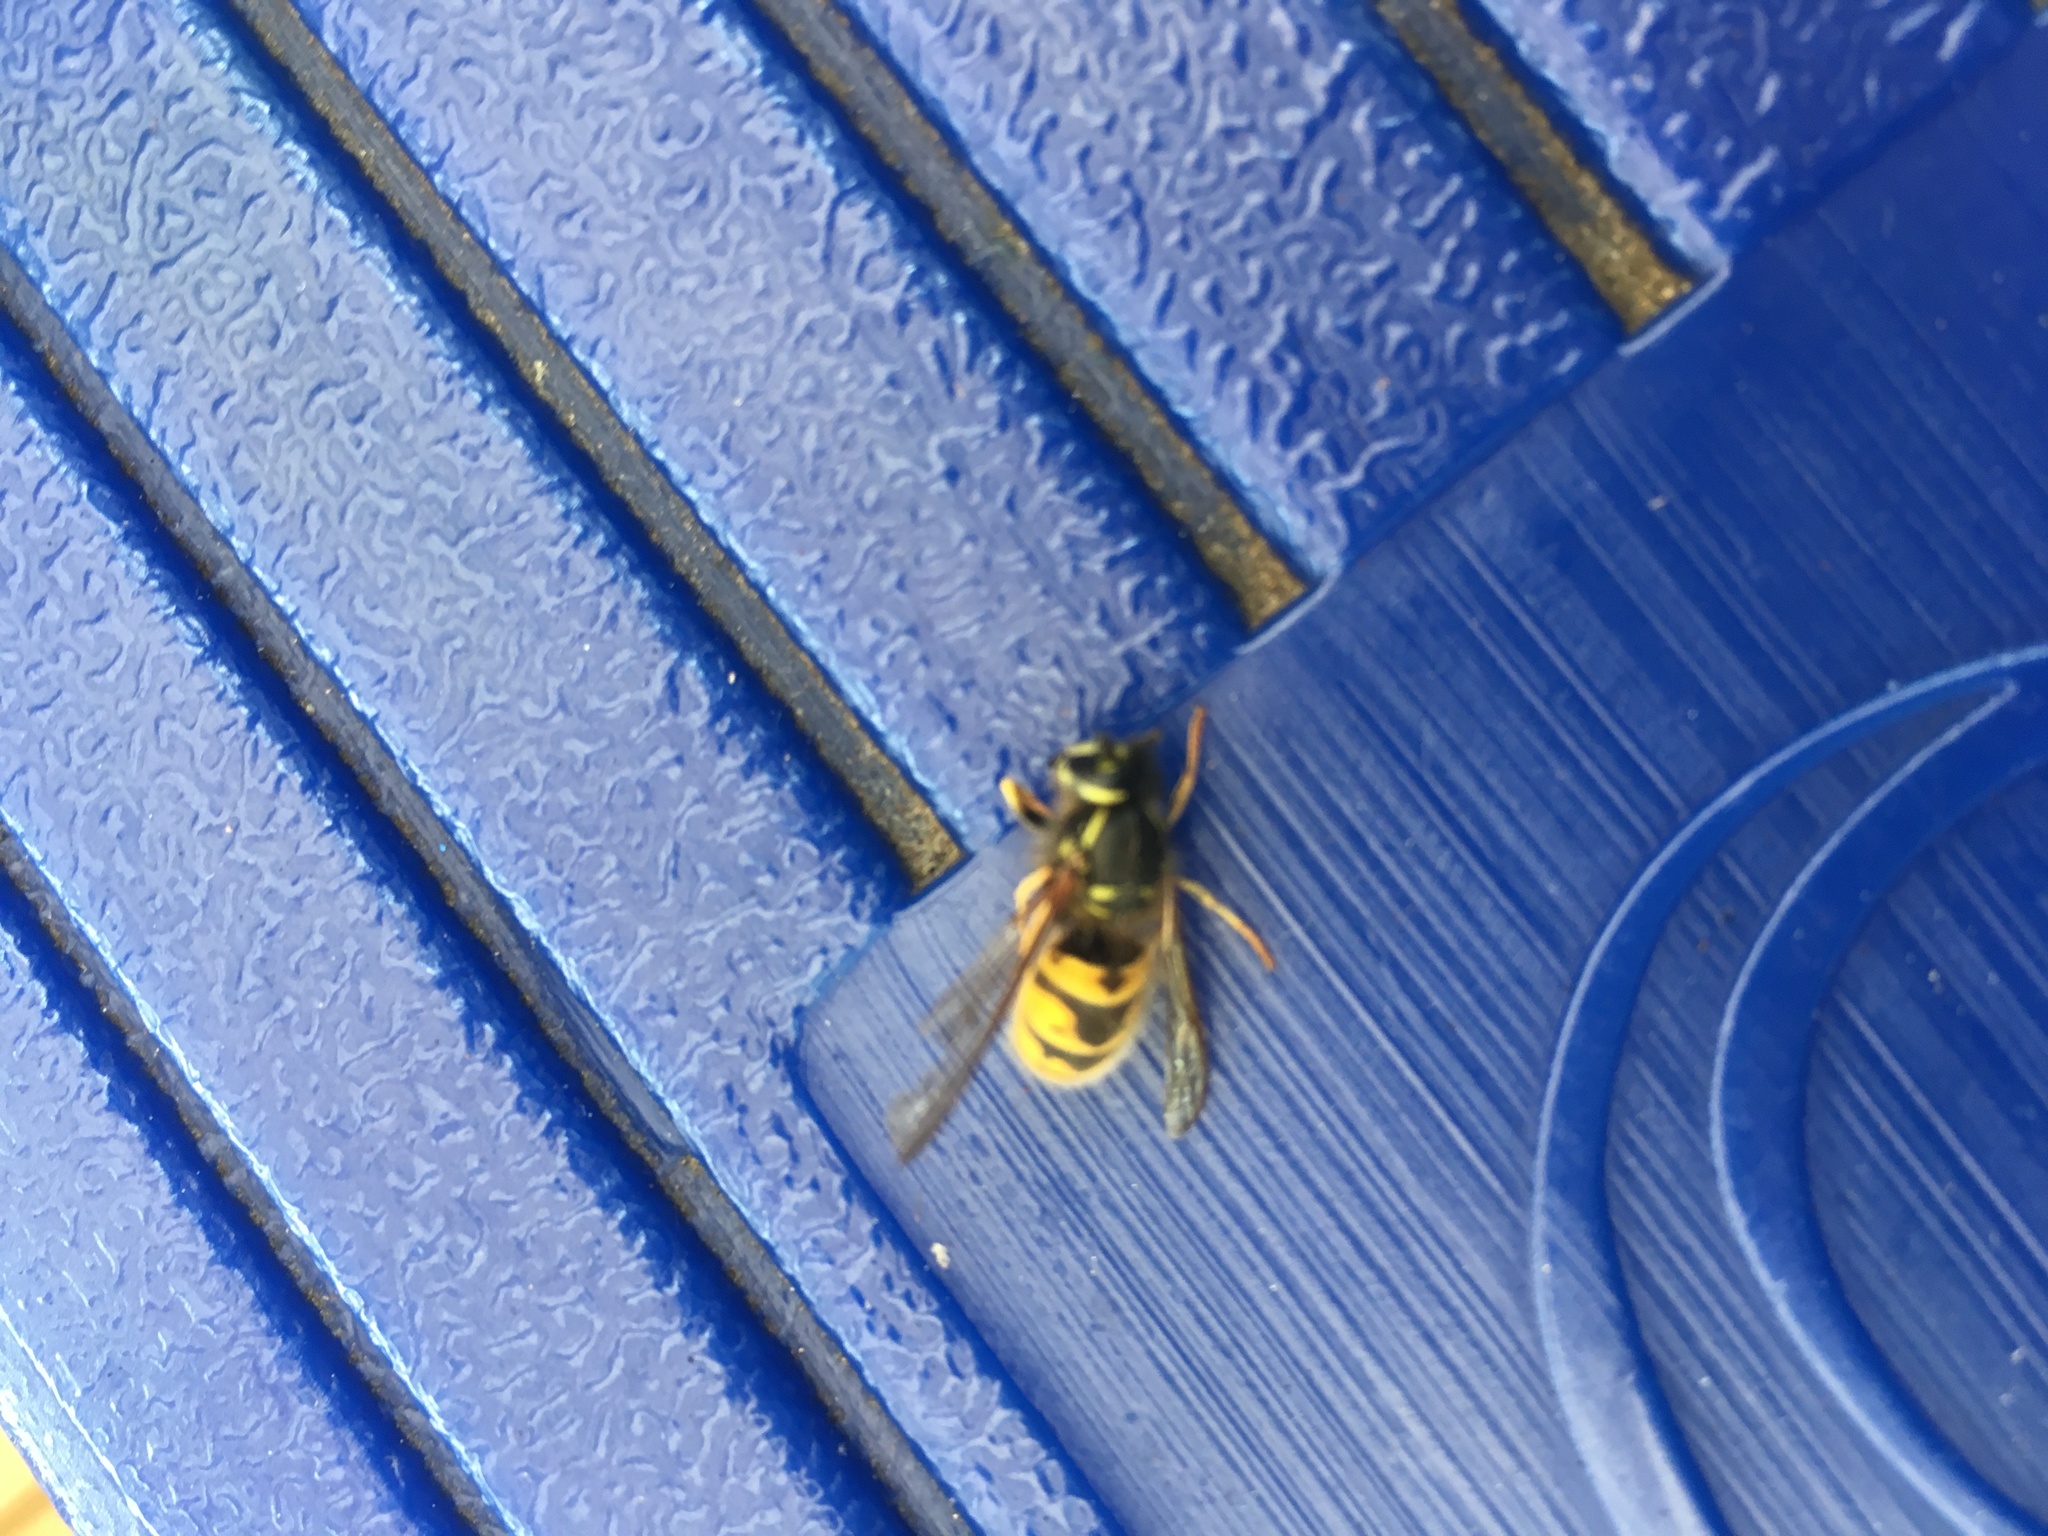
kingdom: Animalia
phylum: Arthropoda
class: Insecta
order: Hymenoptera
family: Vespidae
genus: Vespula
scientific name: Vespula vulgaris
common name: Common wasp
